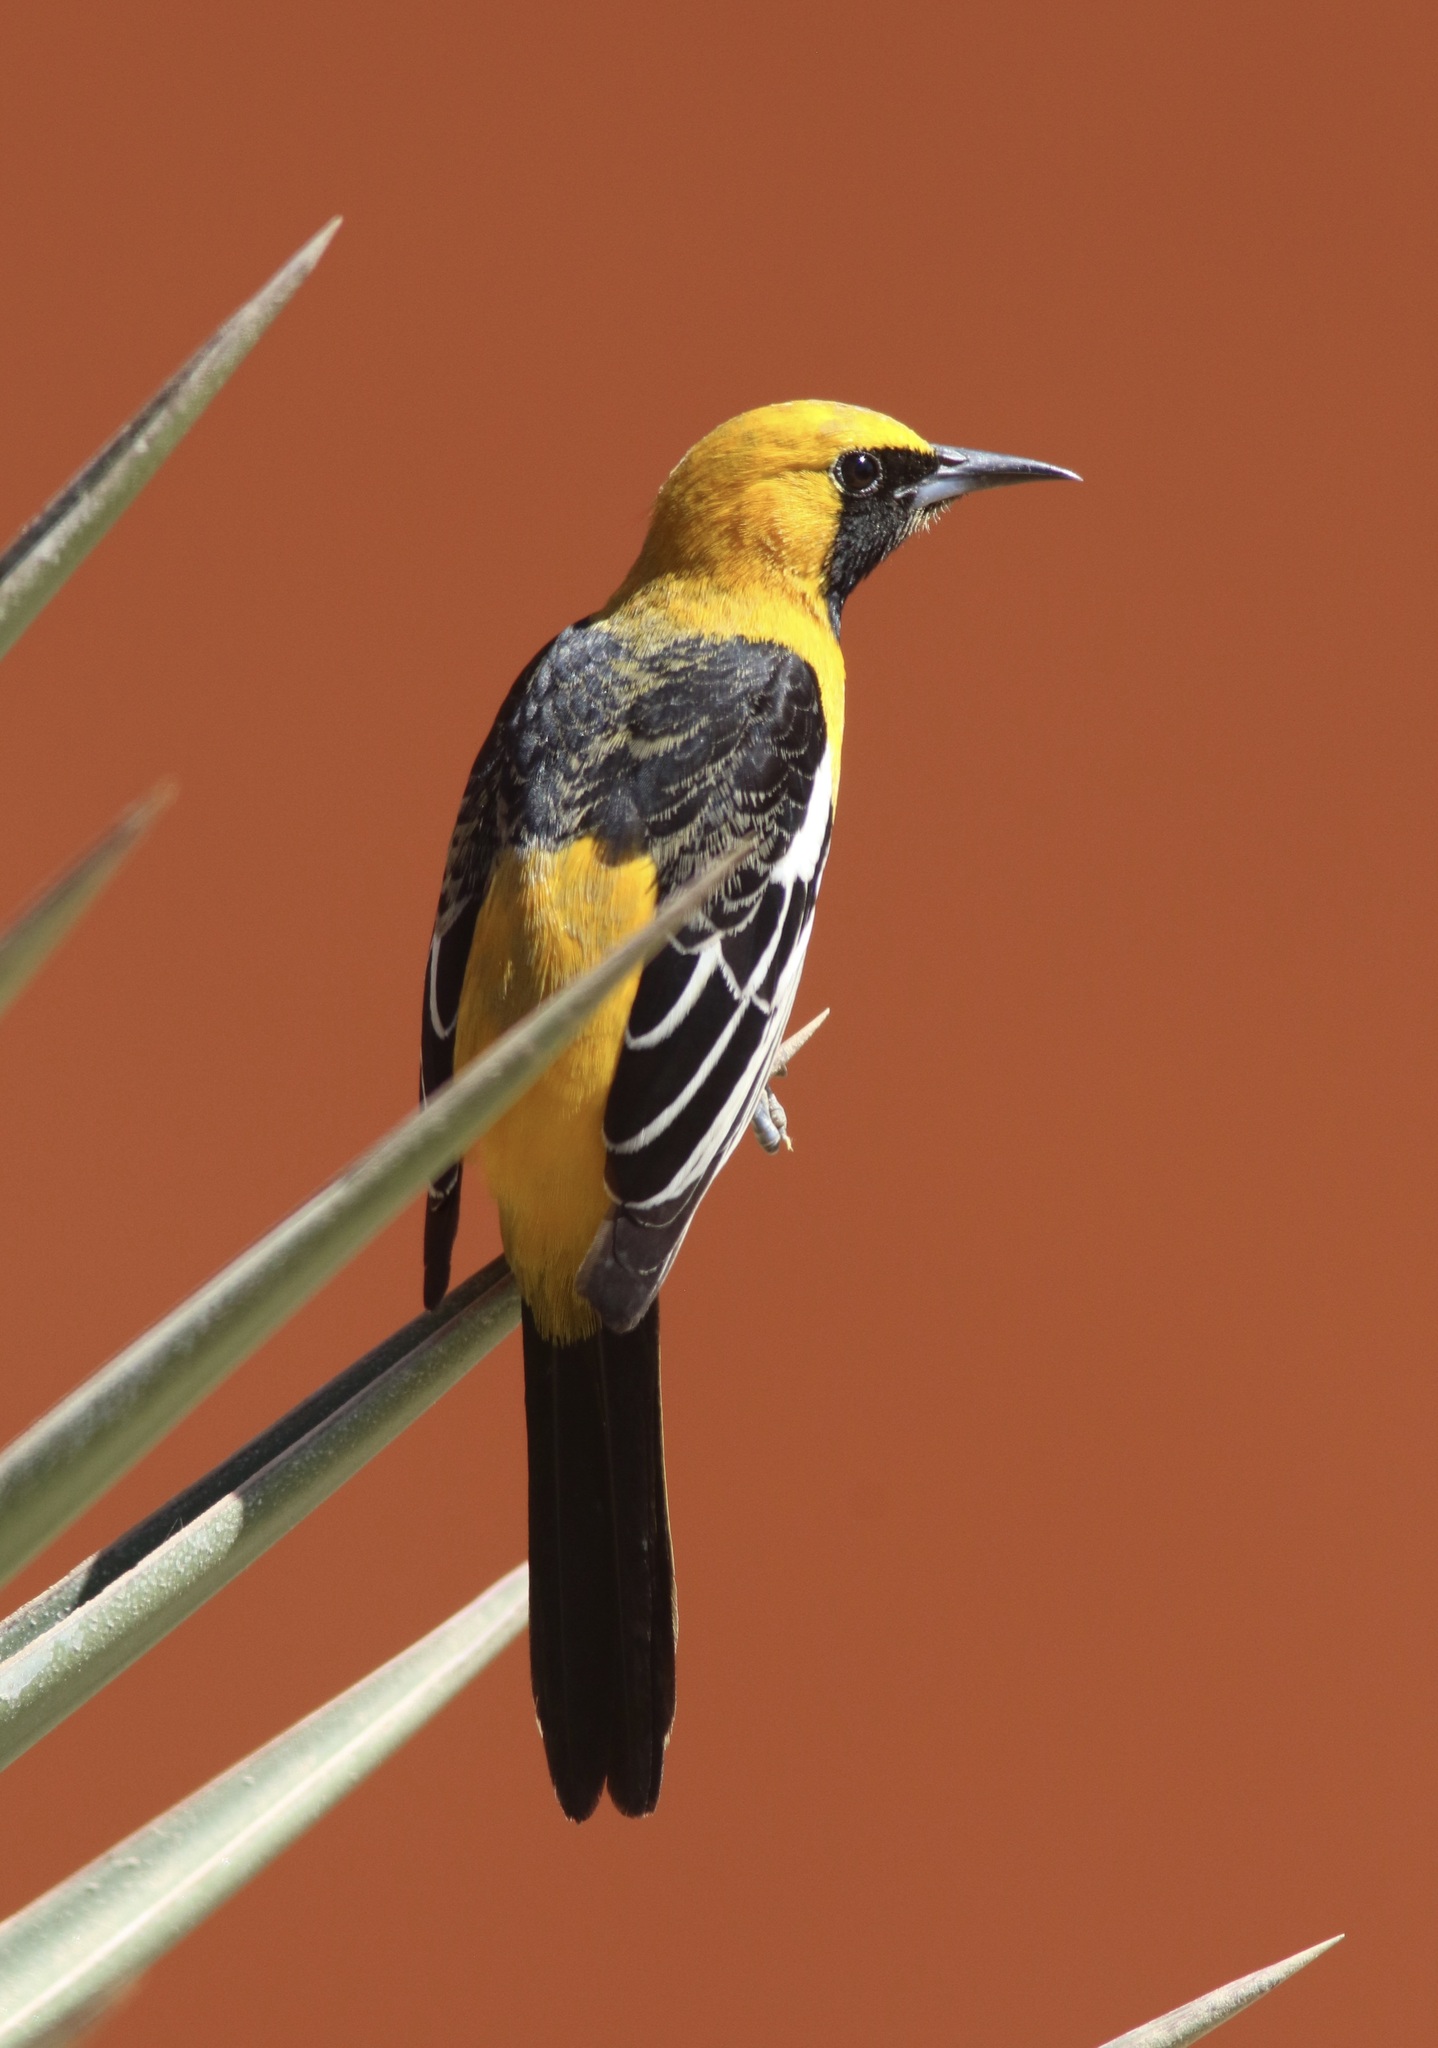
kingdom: Animalia
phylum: Chordata
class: Aves
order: Passeriformes
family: Icteridae
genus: Icterus
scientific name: Icterus cucullatus
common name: Hooded oriole
